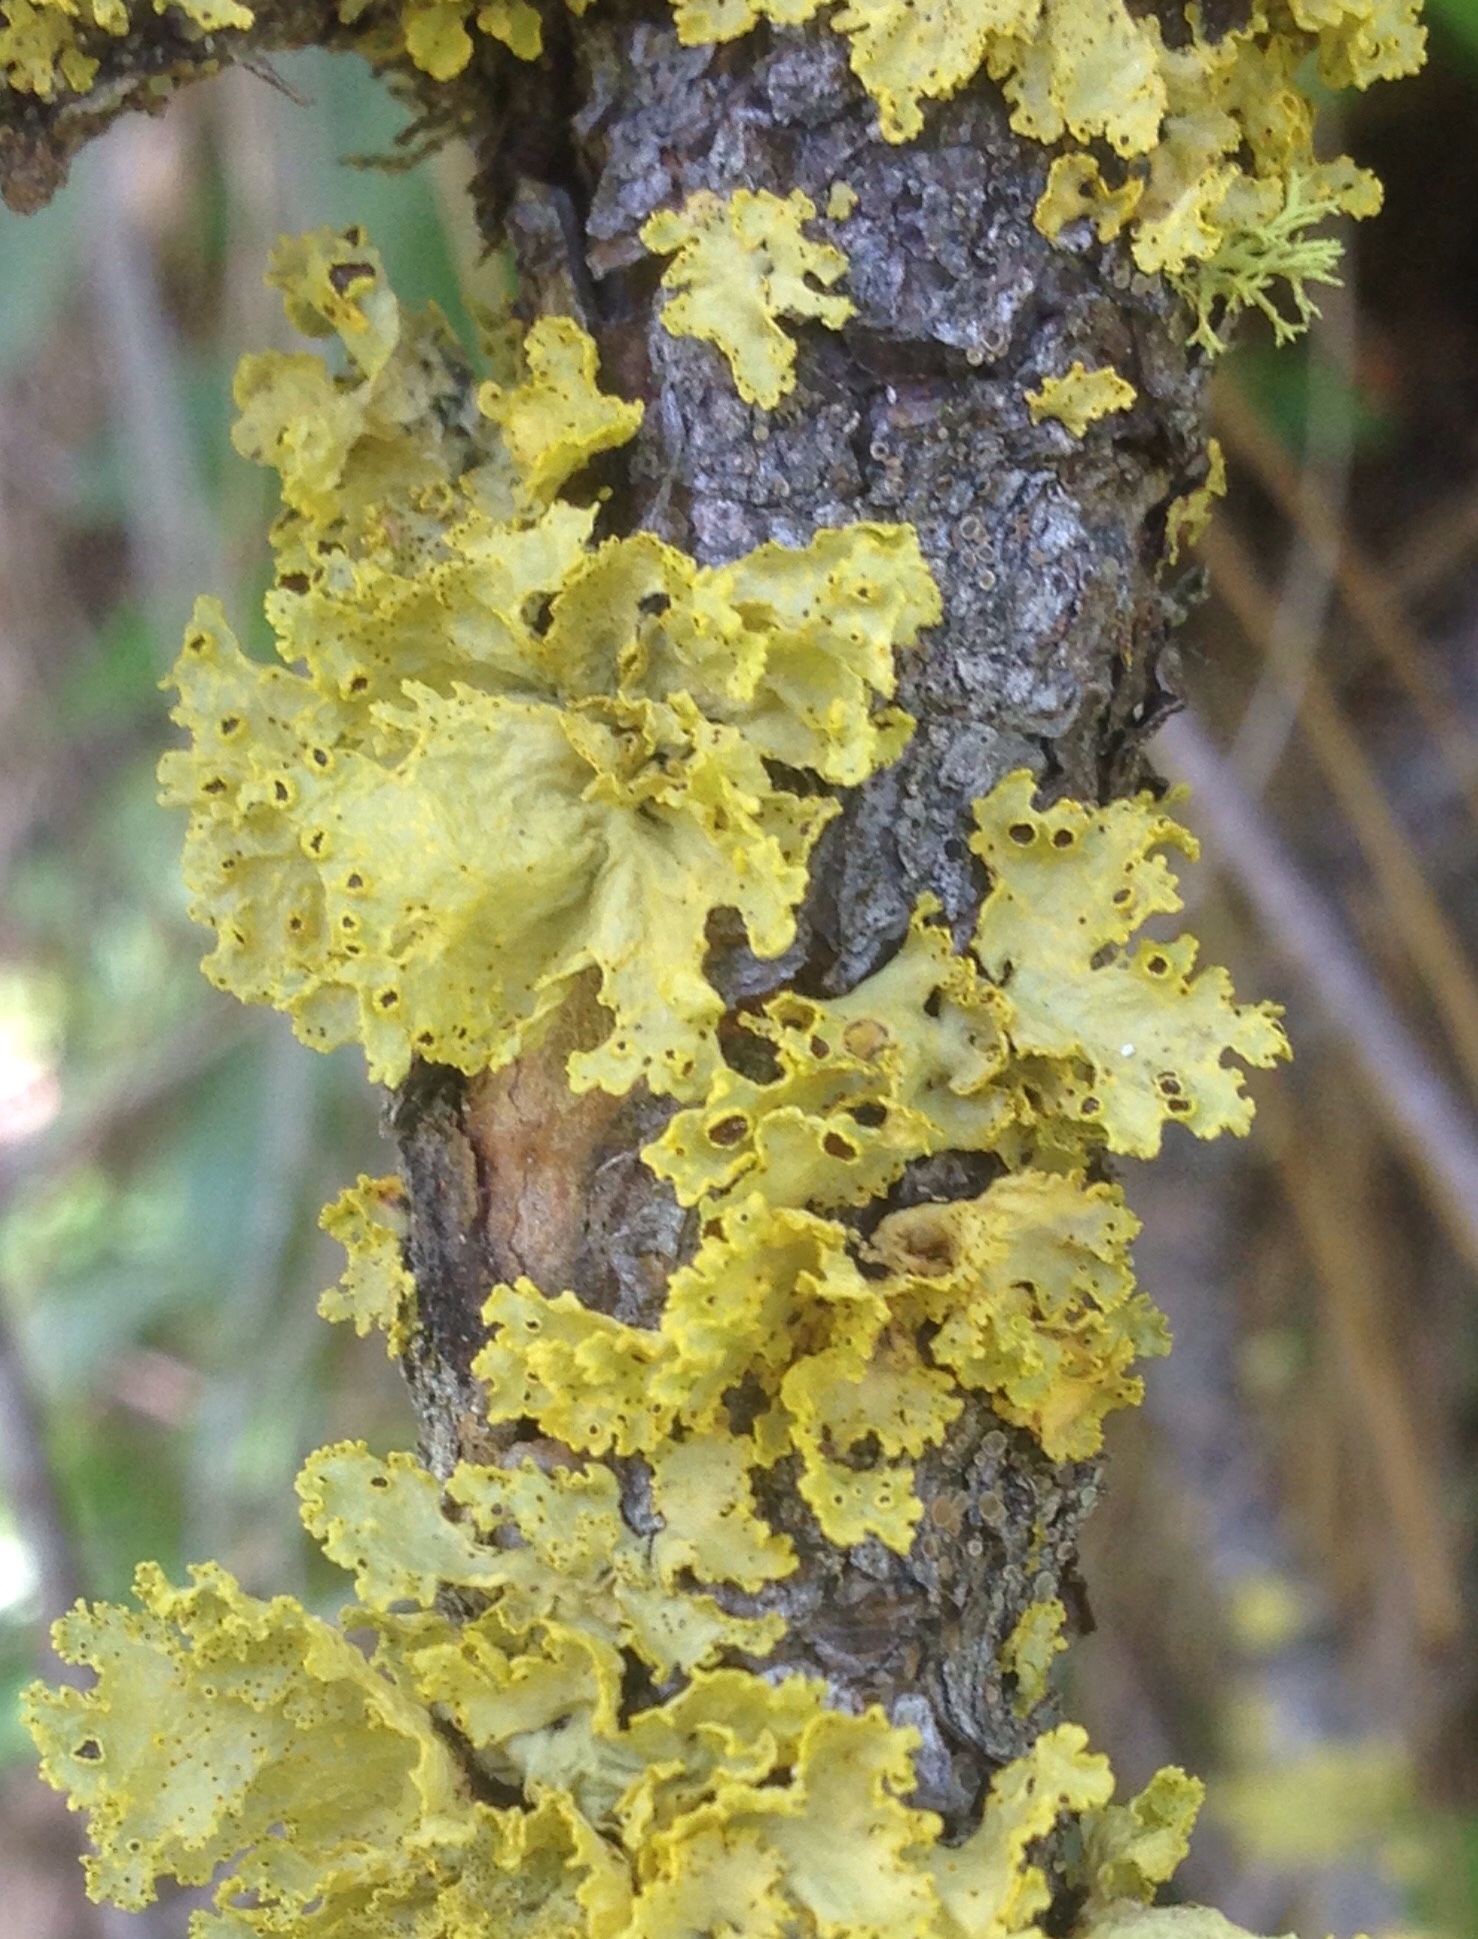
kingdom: Fungi
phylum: Ascomycota
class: Lecanoromycetes
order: Lecanorales
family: Parmeliaceae
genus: Vulpicida
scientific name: Vulpicida canadensis
